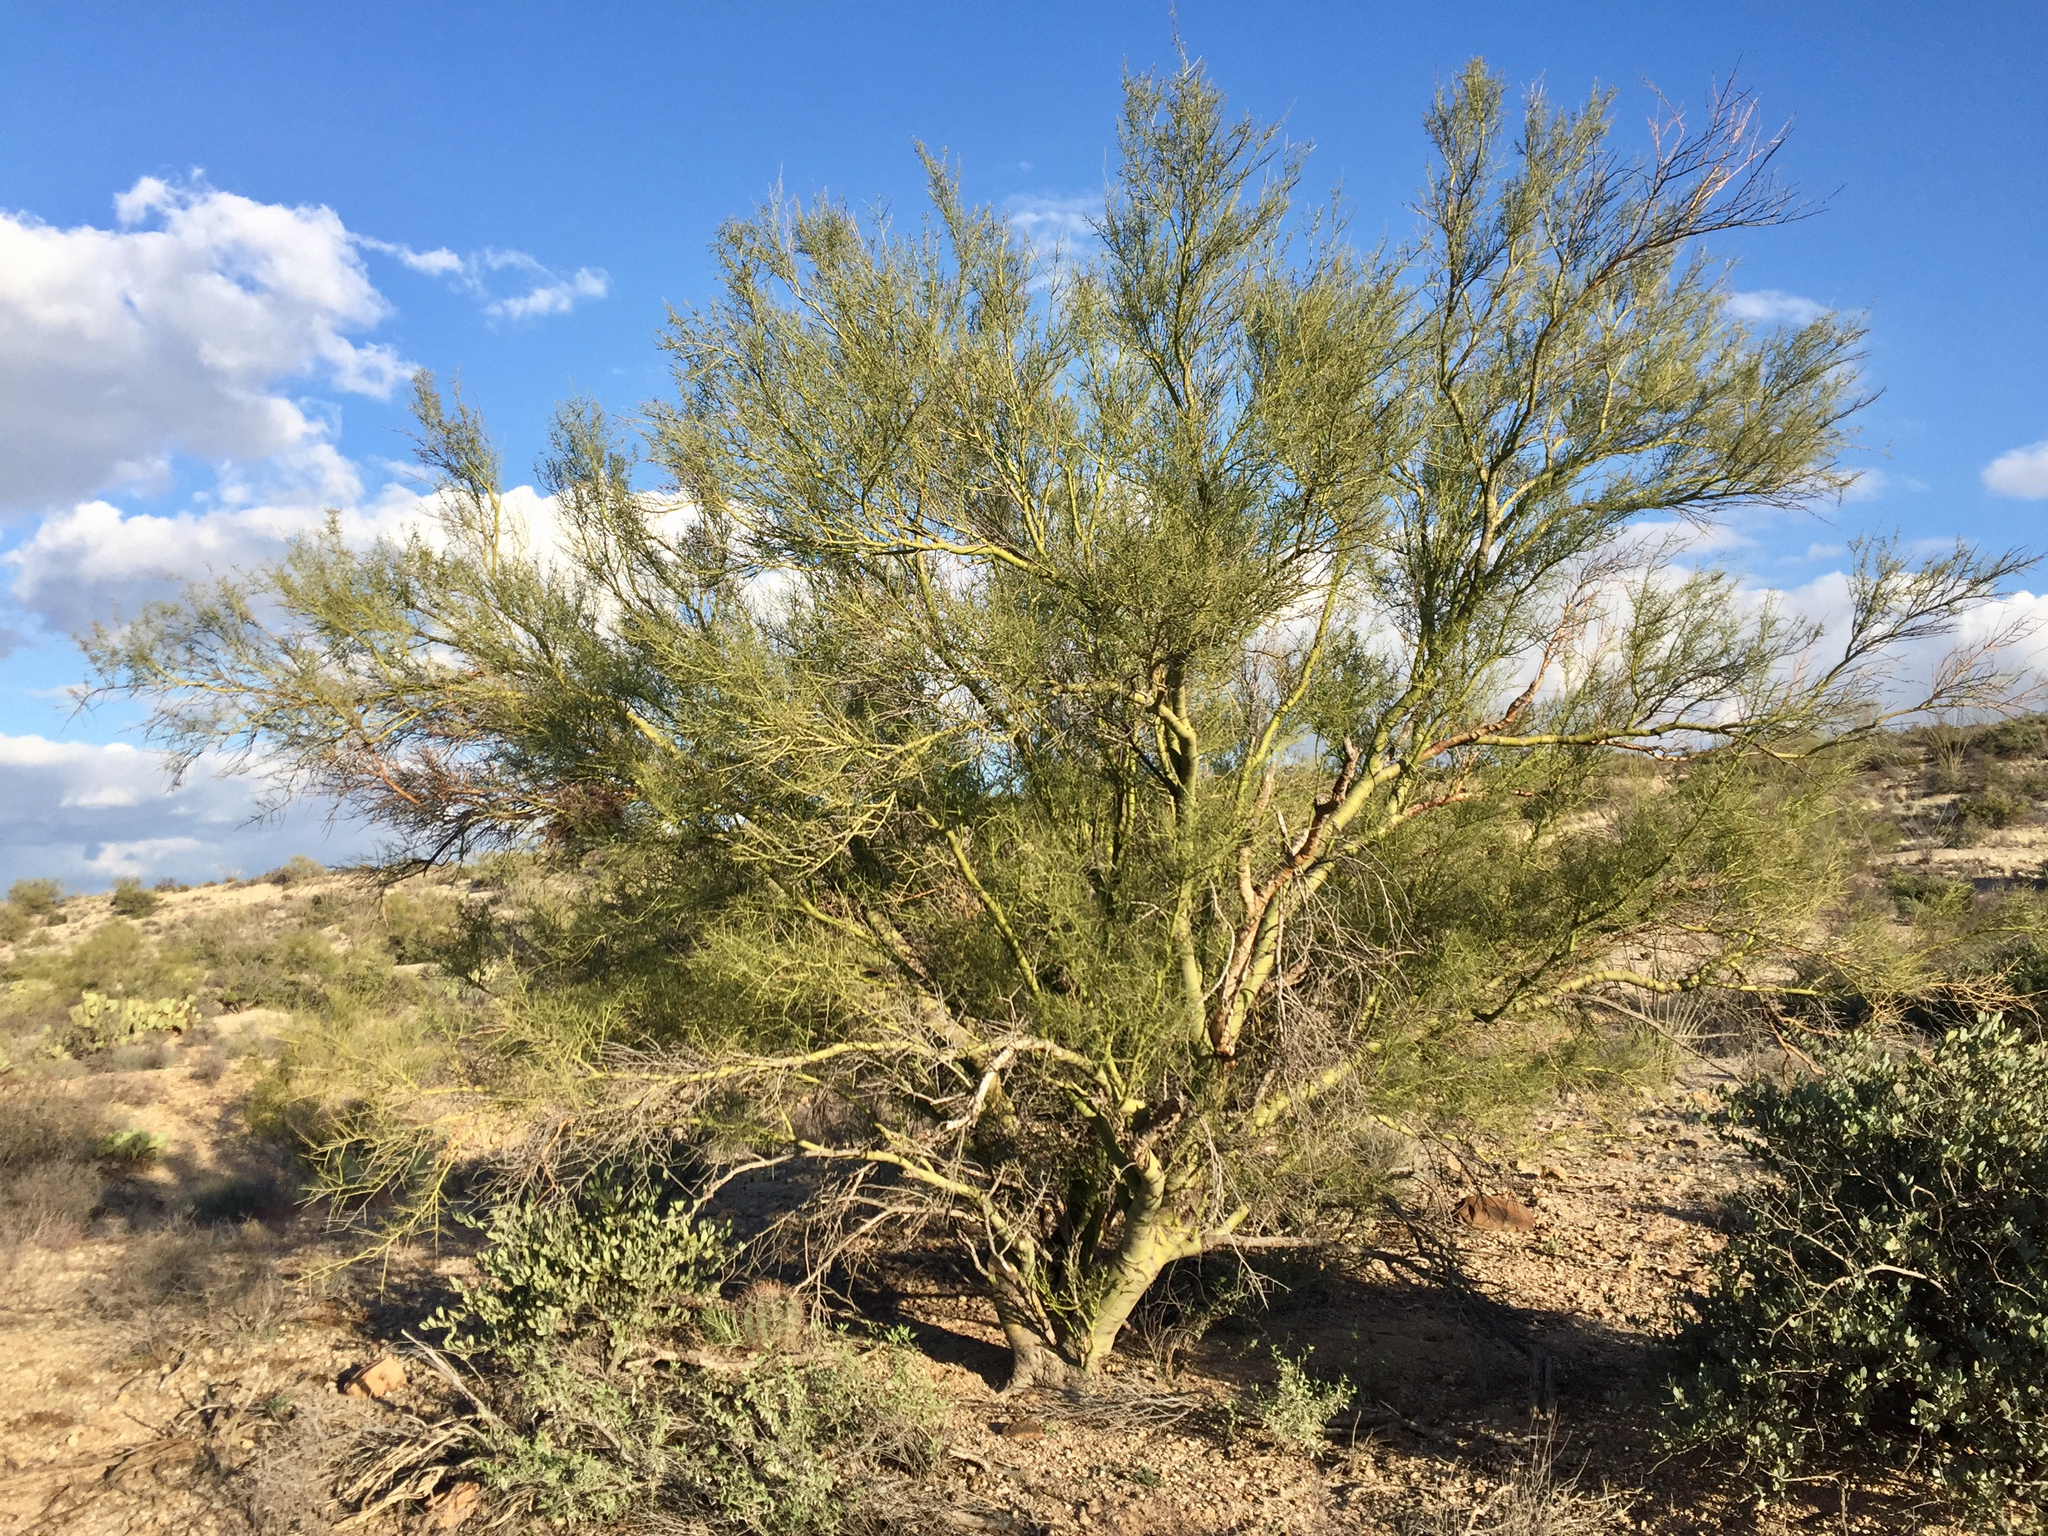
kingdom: Plantae
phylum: Tracheophyta
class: Magnoliopsida
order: Fabales
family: Fabaceae
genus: Parkinsonia
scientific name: Parkinsonia microphylla
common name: Yellow paloverde
